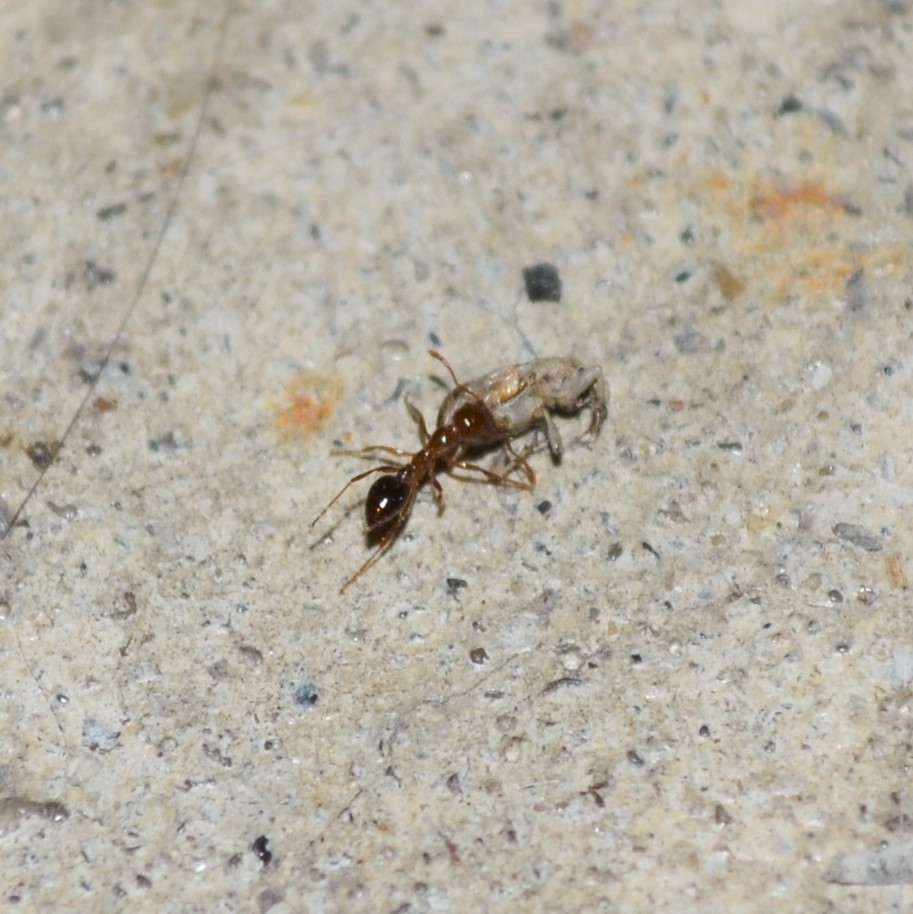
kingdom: Animalia
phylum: Arthropoda
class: Insecta
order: Hymenoptera
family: Formicidae
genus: Solenopsis
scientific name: Solenopsis invicta
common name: Red imported fire ant
